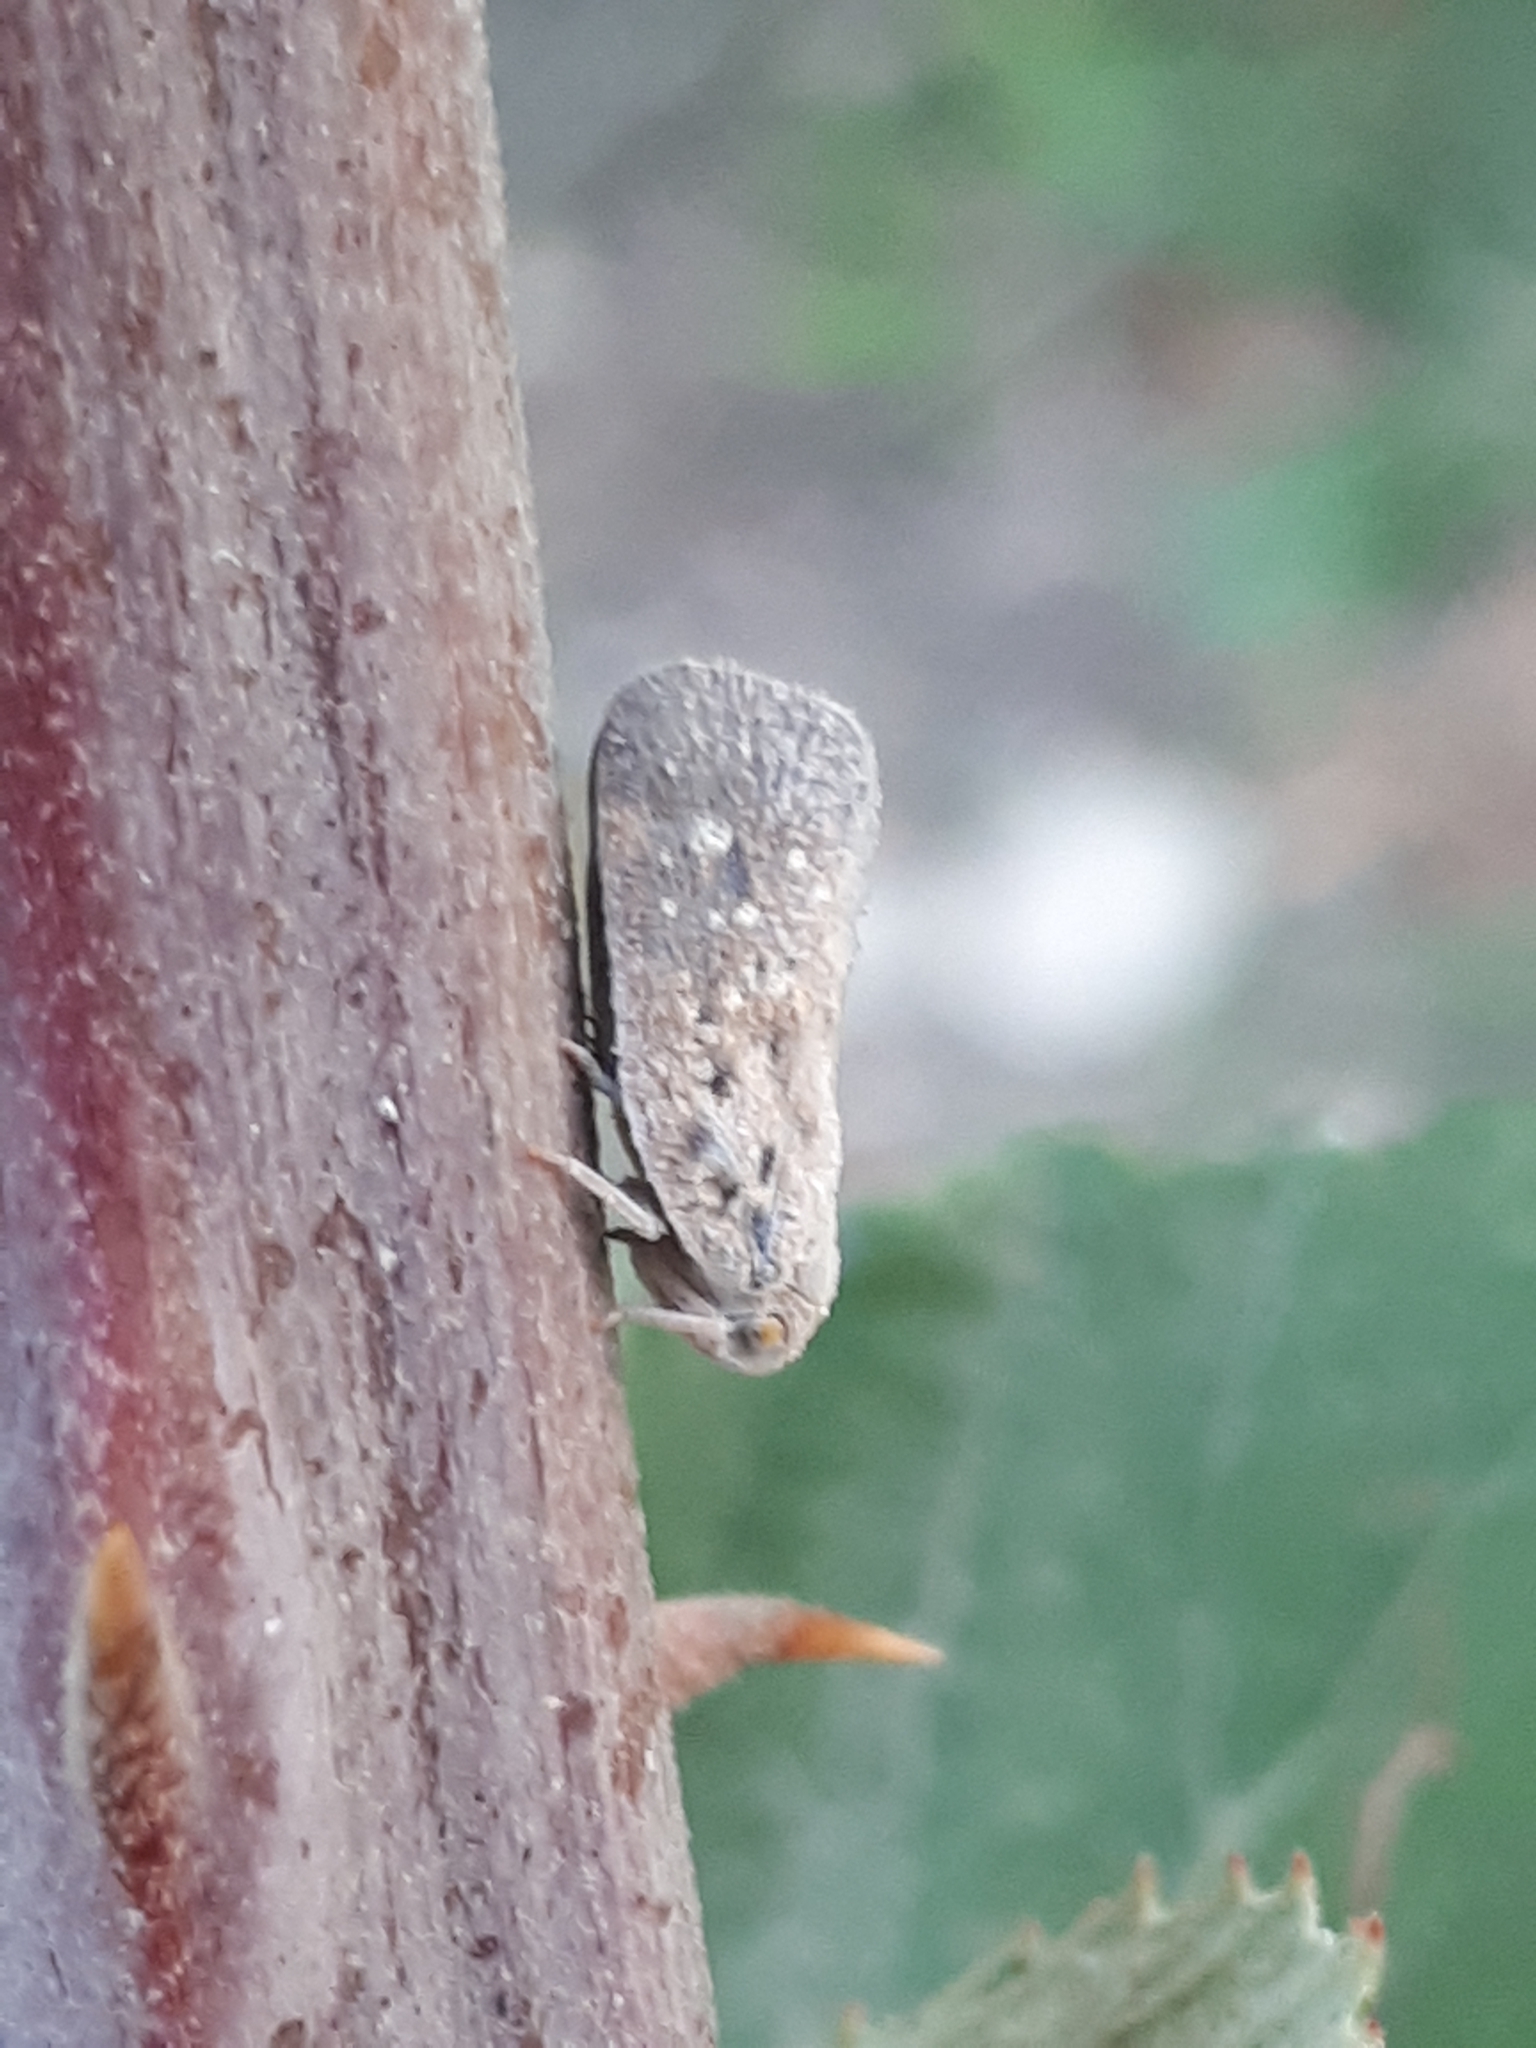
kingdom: Animalia
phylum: Arthropoda
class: Insecta
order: Hemiptera
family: Flatidae
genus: Metcalfa
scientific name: Metcalfa pruinosa
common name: Citrus flatid planthopper
